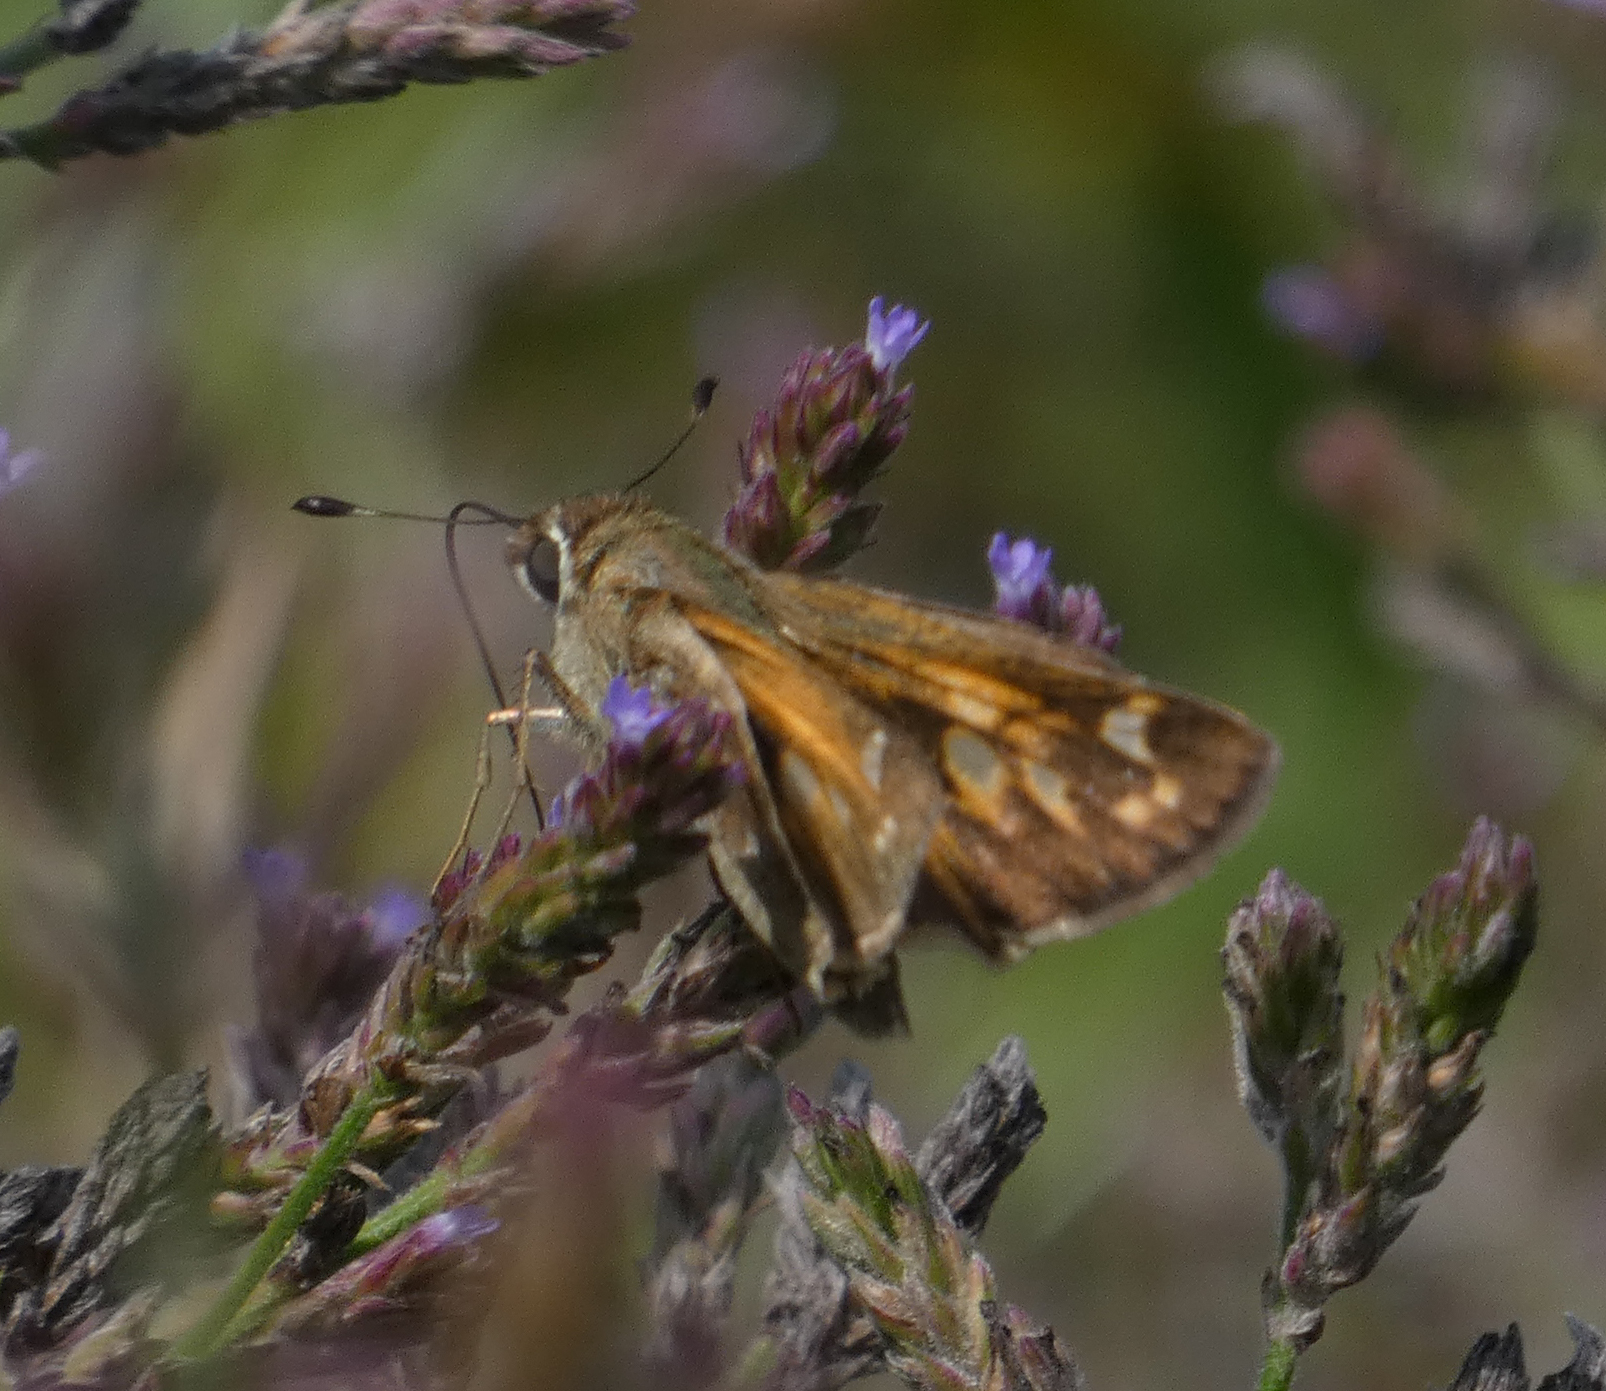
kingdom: Animalia
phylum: Arthropoda
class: Insecta
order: Lepidoptera
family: Hesperiidae
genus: Atalopedes
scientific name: Atalopedes
